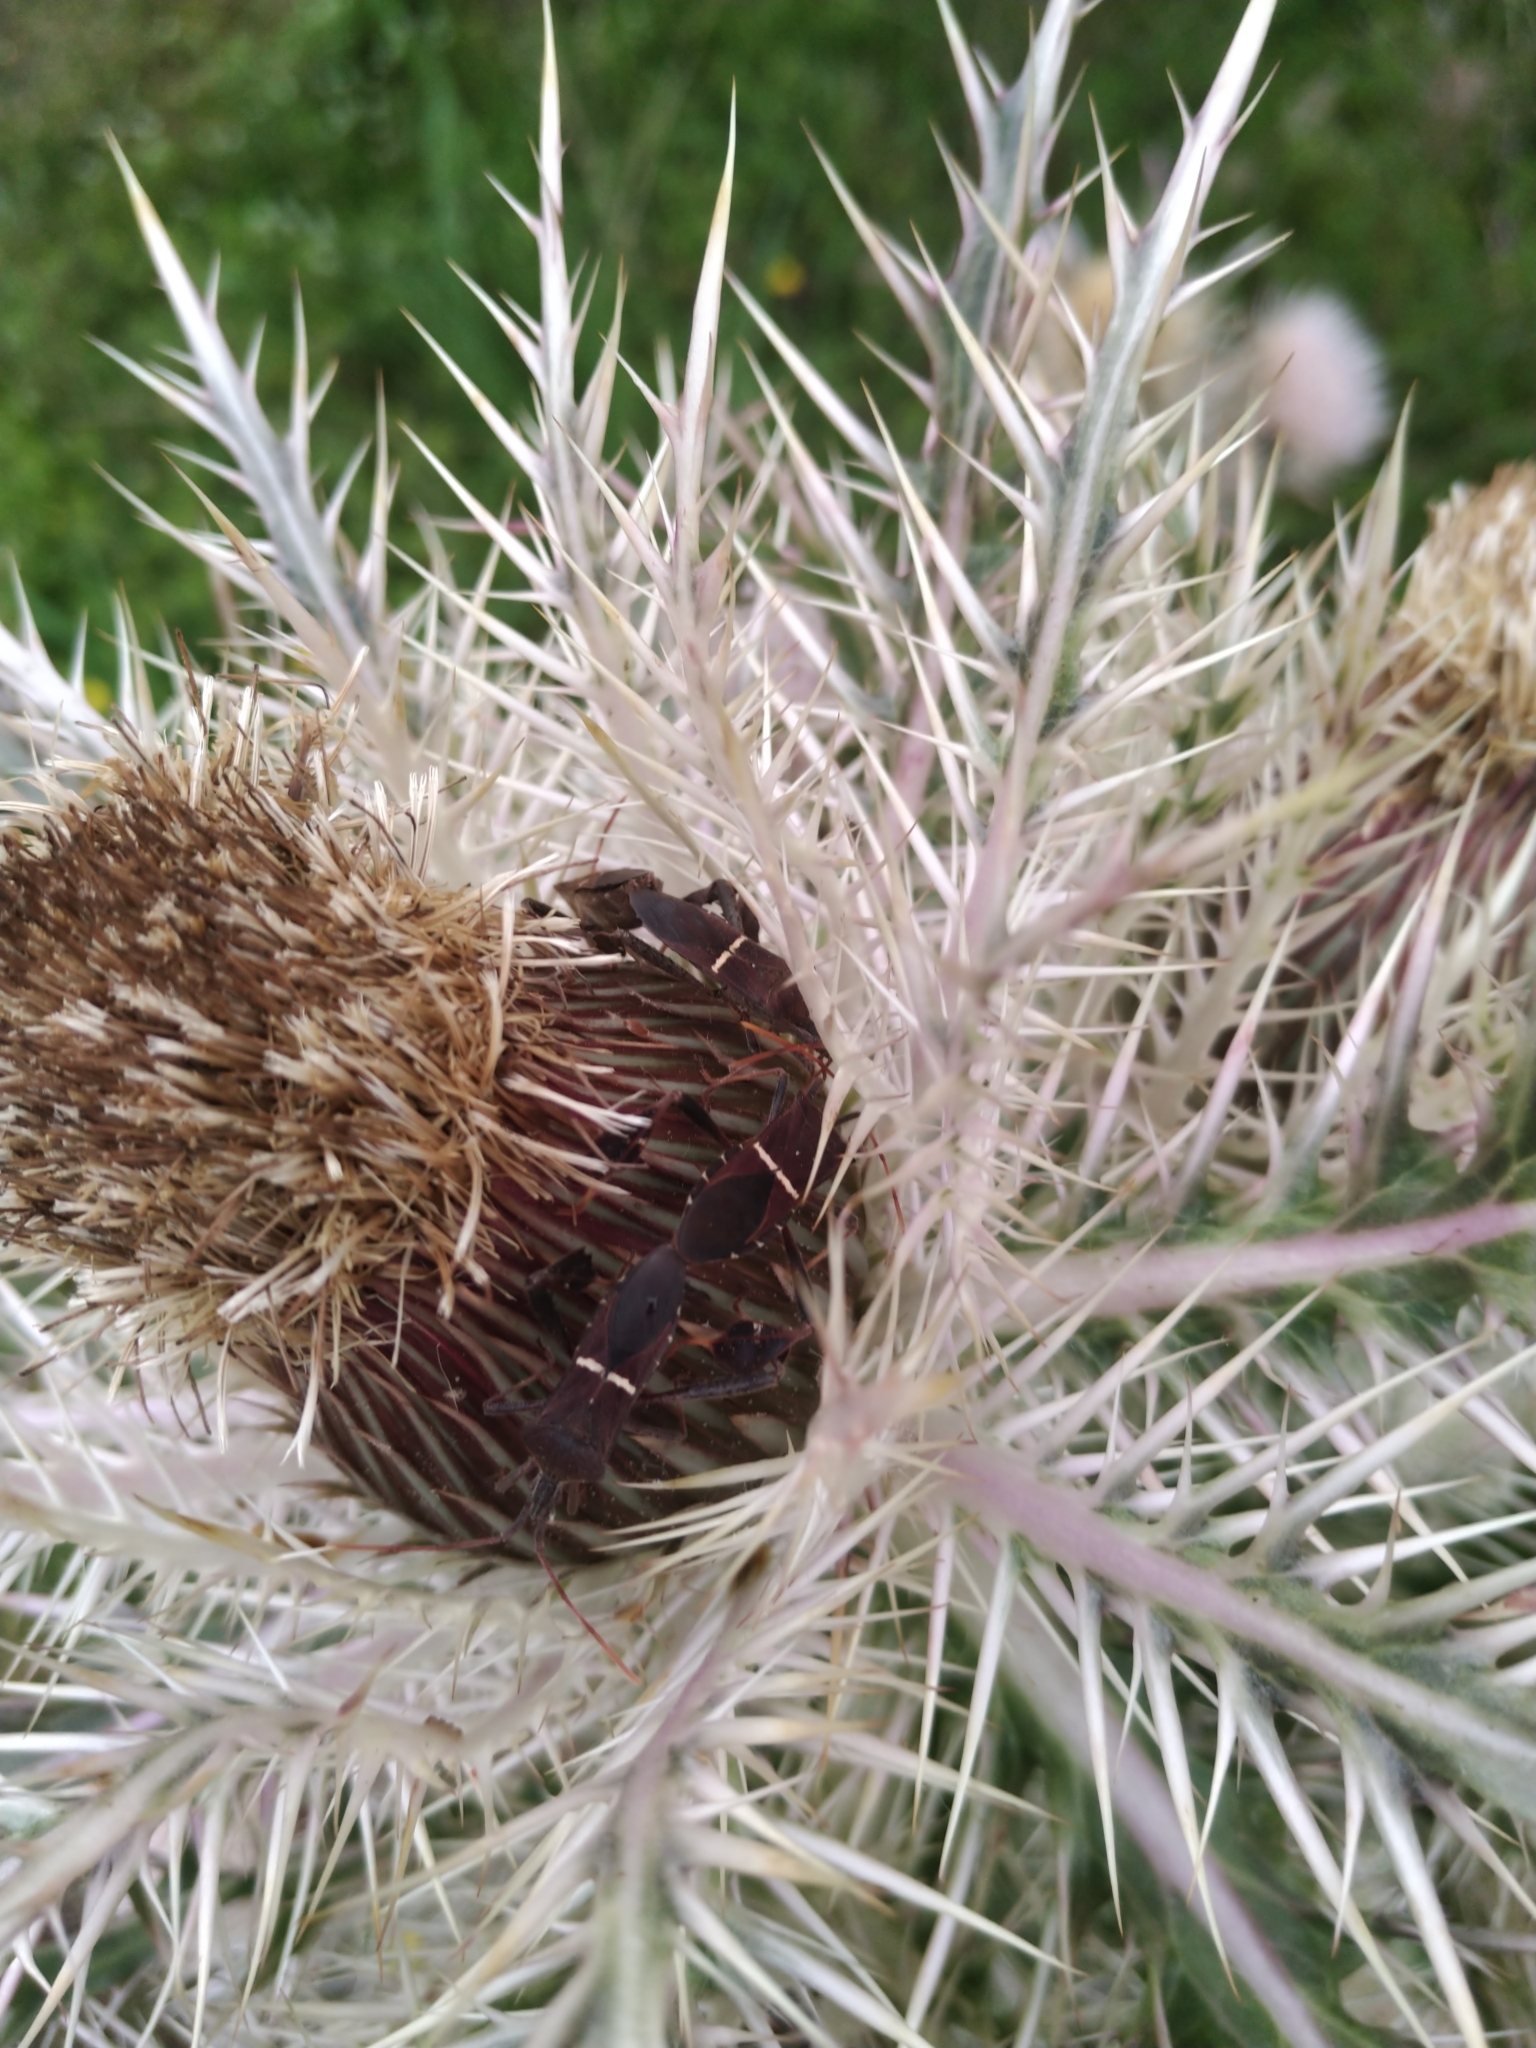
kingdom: Animalia
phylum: Arthropoda
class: Insecta
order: Hemiptera
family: Coreidae
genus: Leptoglossus
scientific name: Leptoglossus phyllopus
